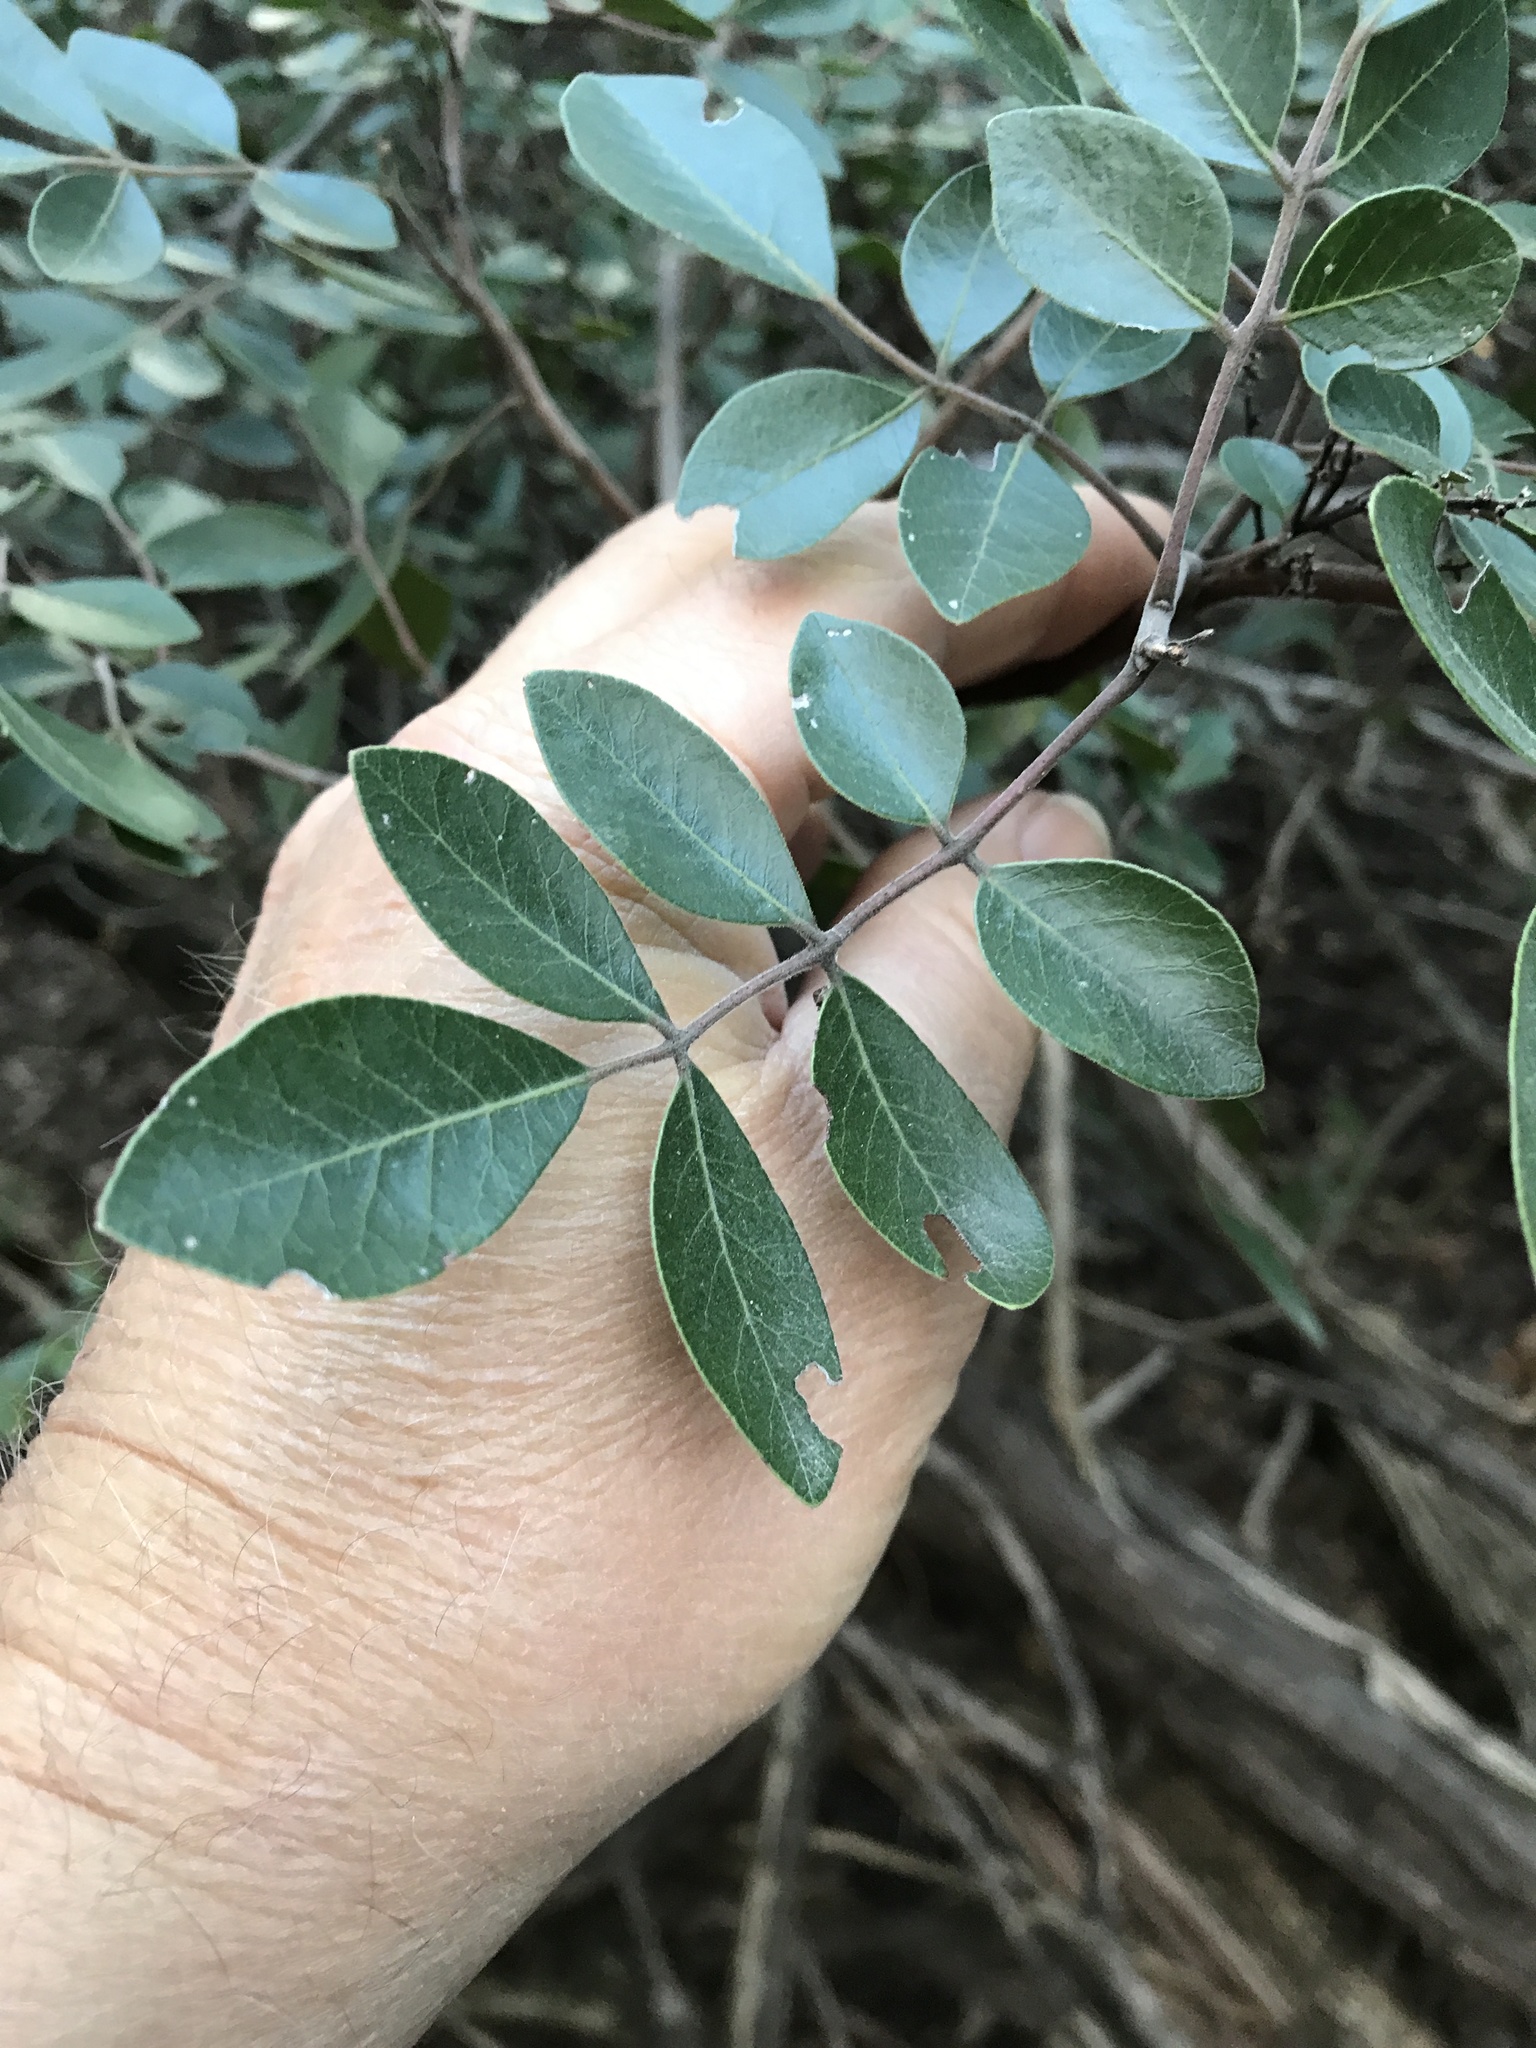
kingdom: Plantae
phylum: Tracheophyta
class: Magnoliopsida
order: Sapindales
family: Anacardiaceae
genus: Rhus
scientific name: Rhus virens
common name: Evergreen sumac
